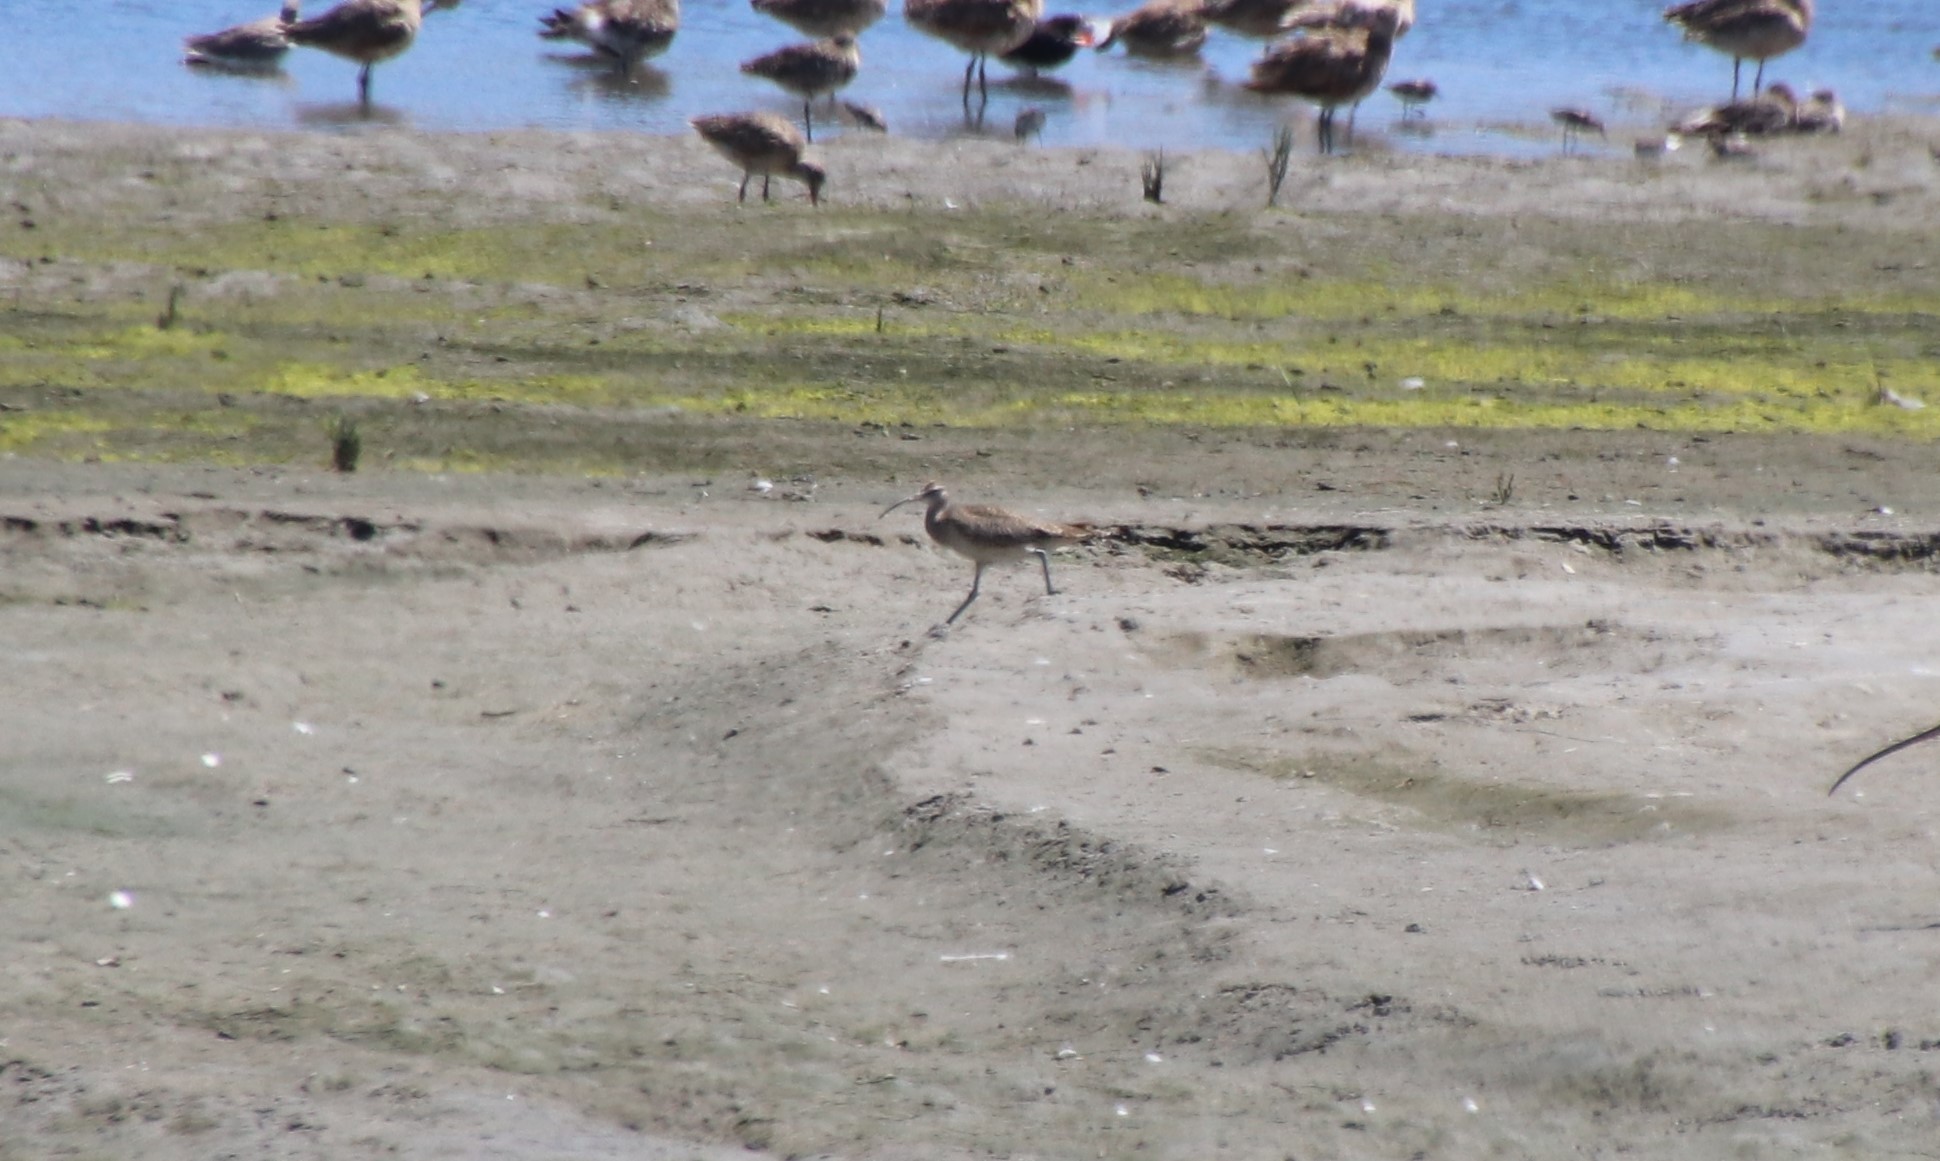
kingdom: Animalia
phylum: Chordata
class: Aves
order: Charadriiformes
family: Scolopacidae
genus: Numenius
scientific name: Numenius phaeopus
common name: Whimbrel
